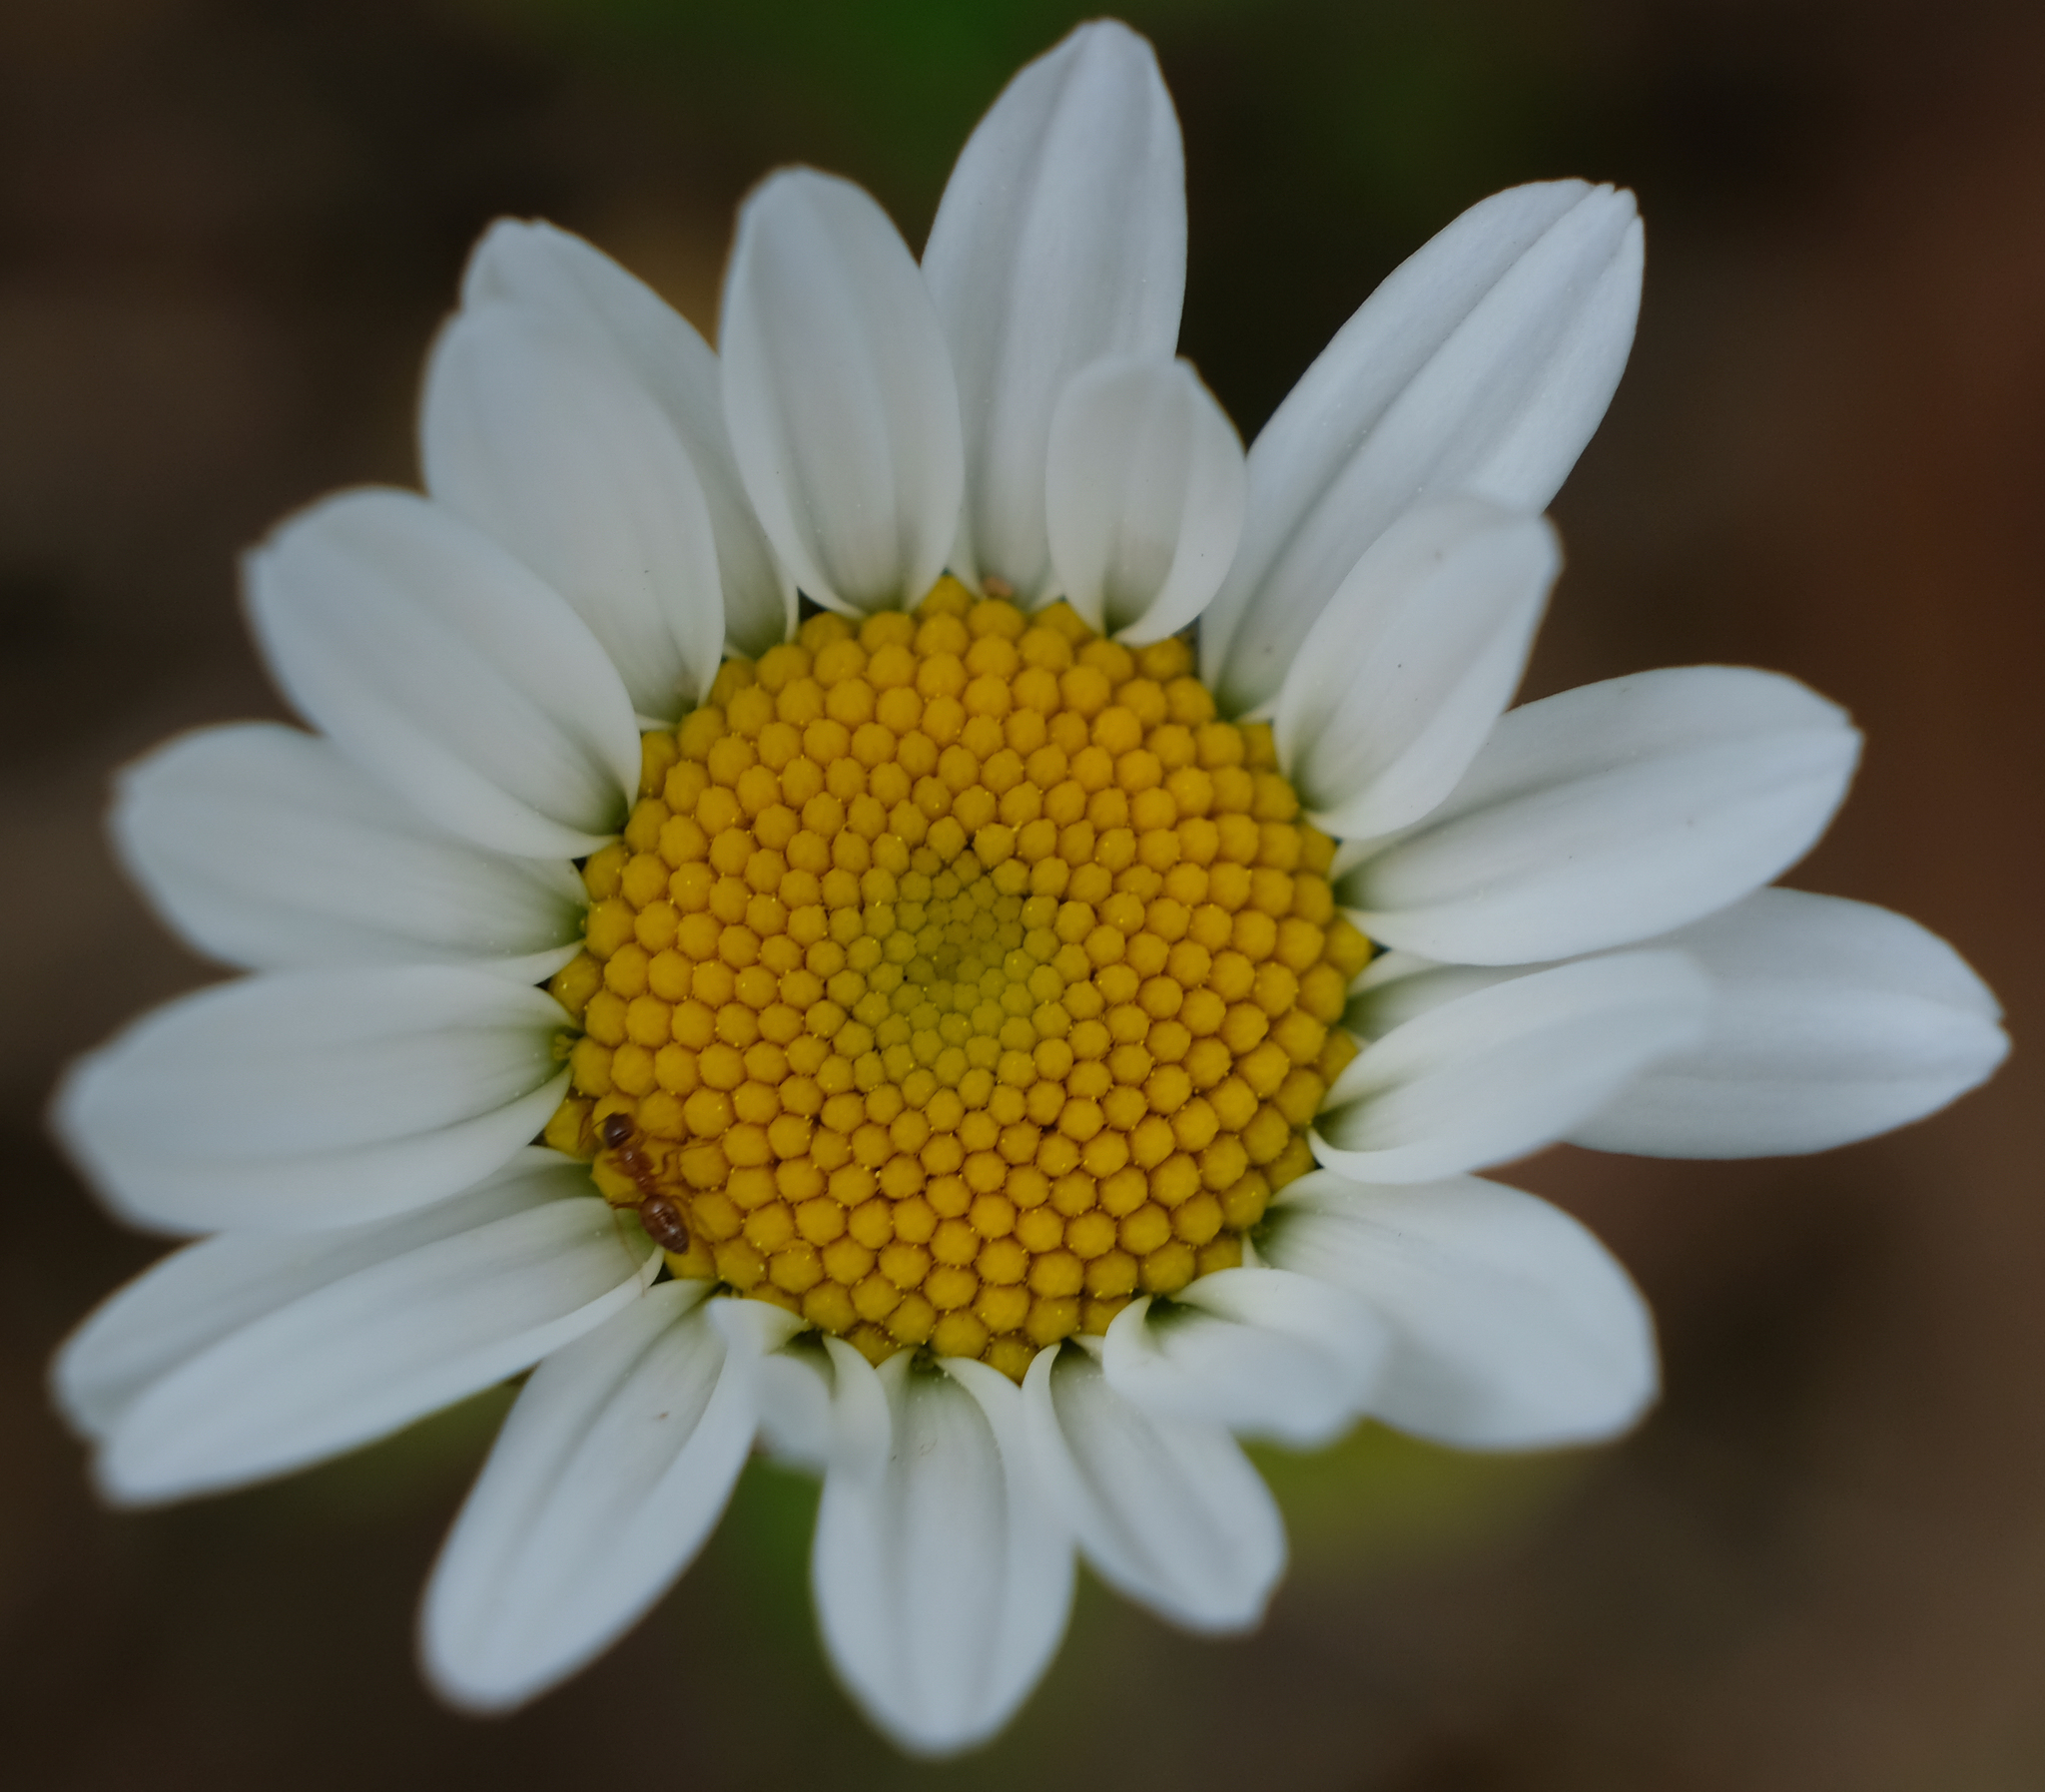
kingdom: Plantae
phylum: Tracheophyta
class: Magnoliopsida
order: Asterales
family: Asteraceae
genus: Leucanthemum
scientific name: Leucanthemum vulgare
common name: Oxeye daisy
